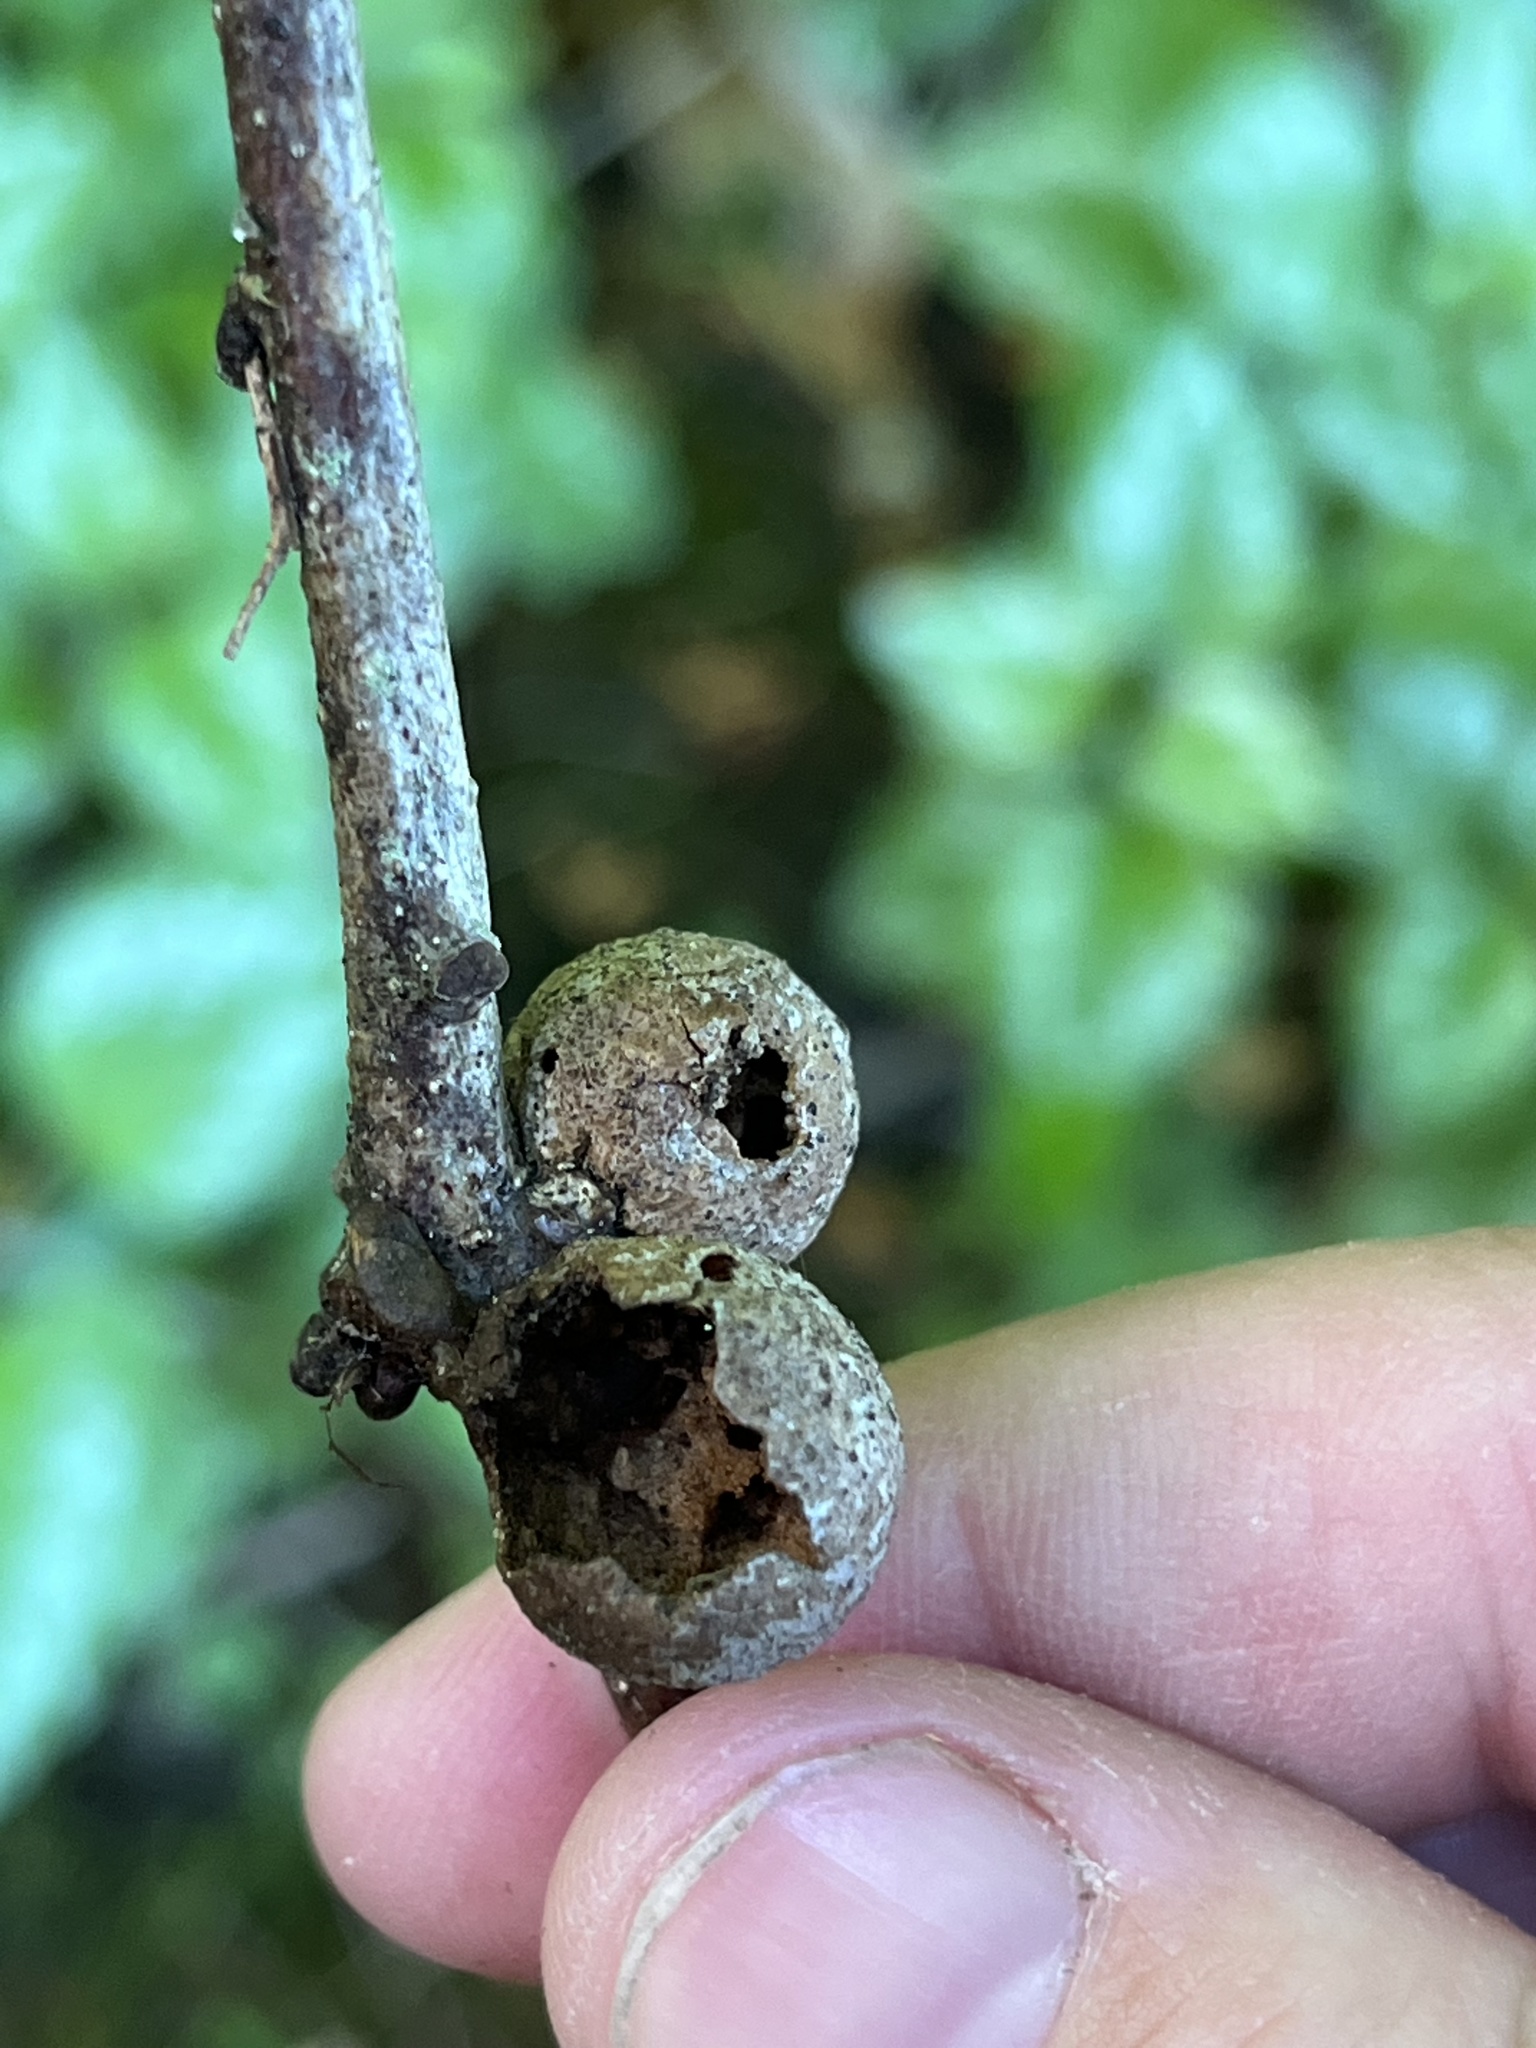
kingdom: Animalia
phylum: Arthropoda
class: Insecta
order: Hymenoptera
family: Cynipidae
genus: Disholcaspis
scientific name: Disholcaspis quercusglobulus
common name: Round bullet gall wasp
